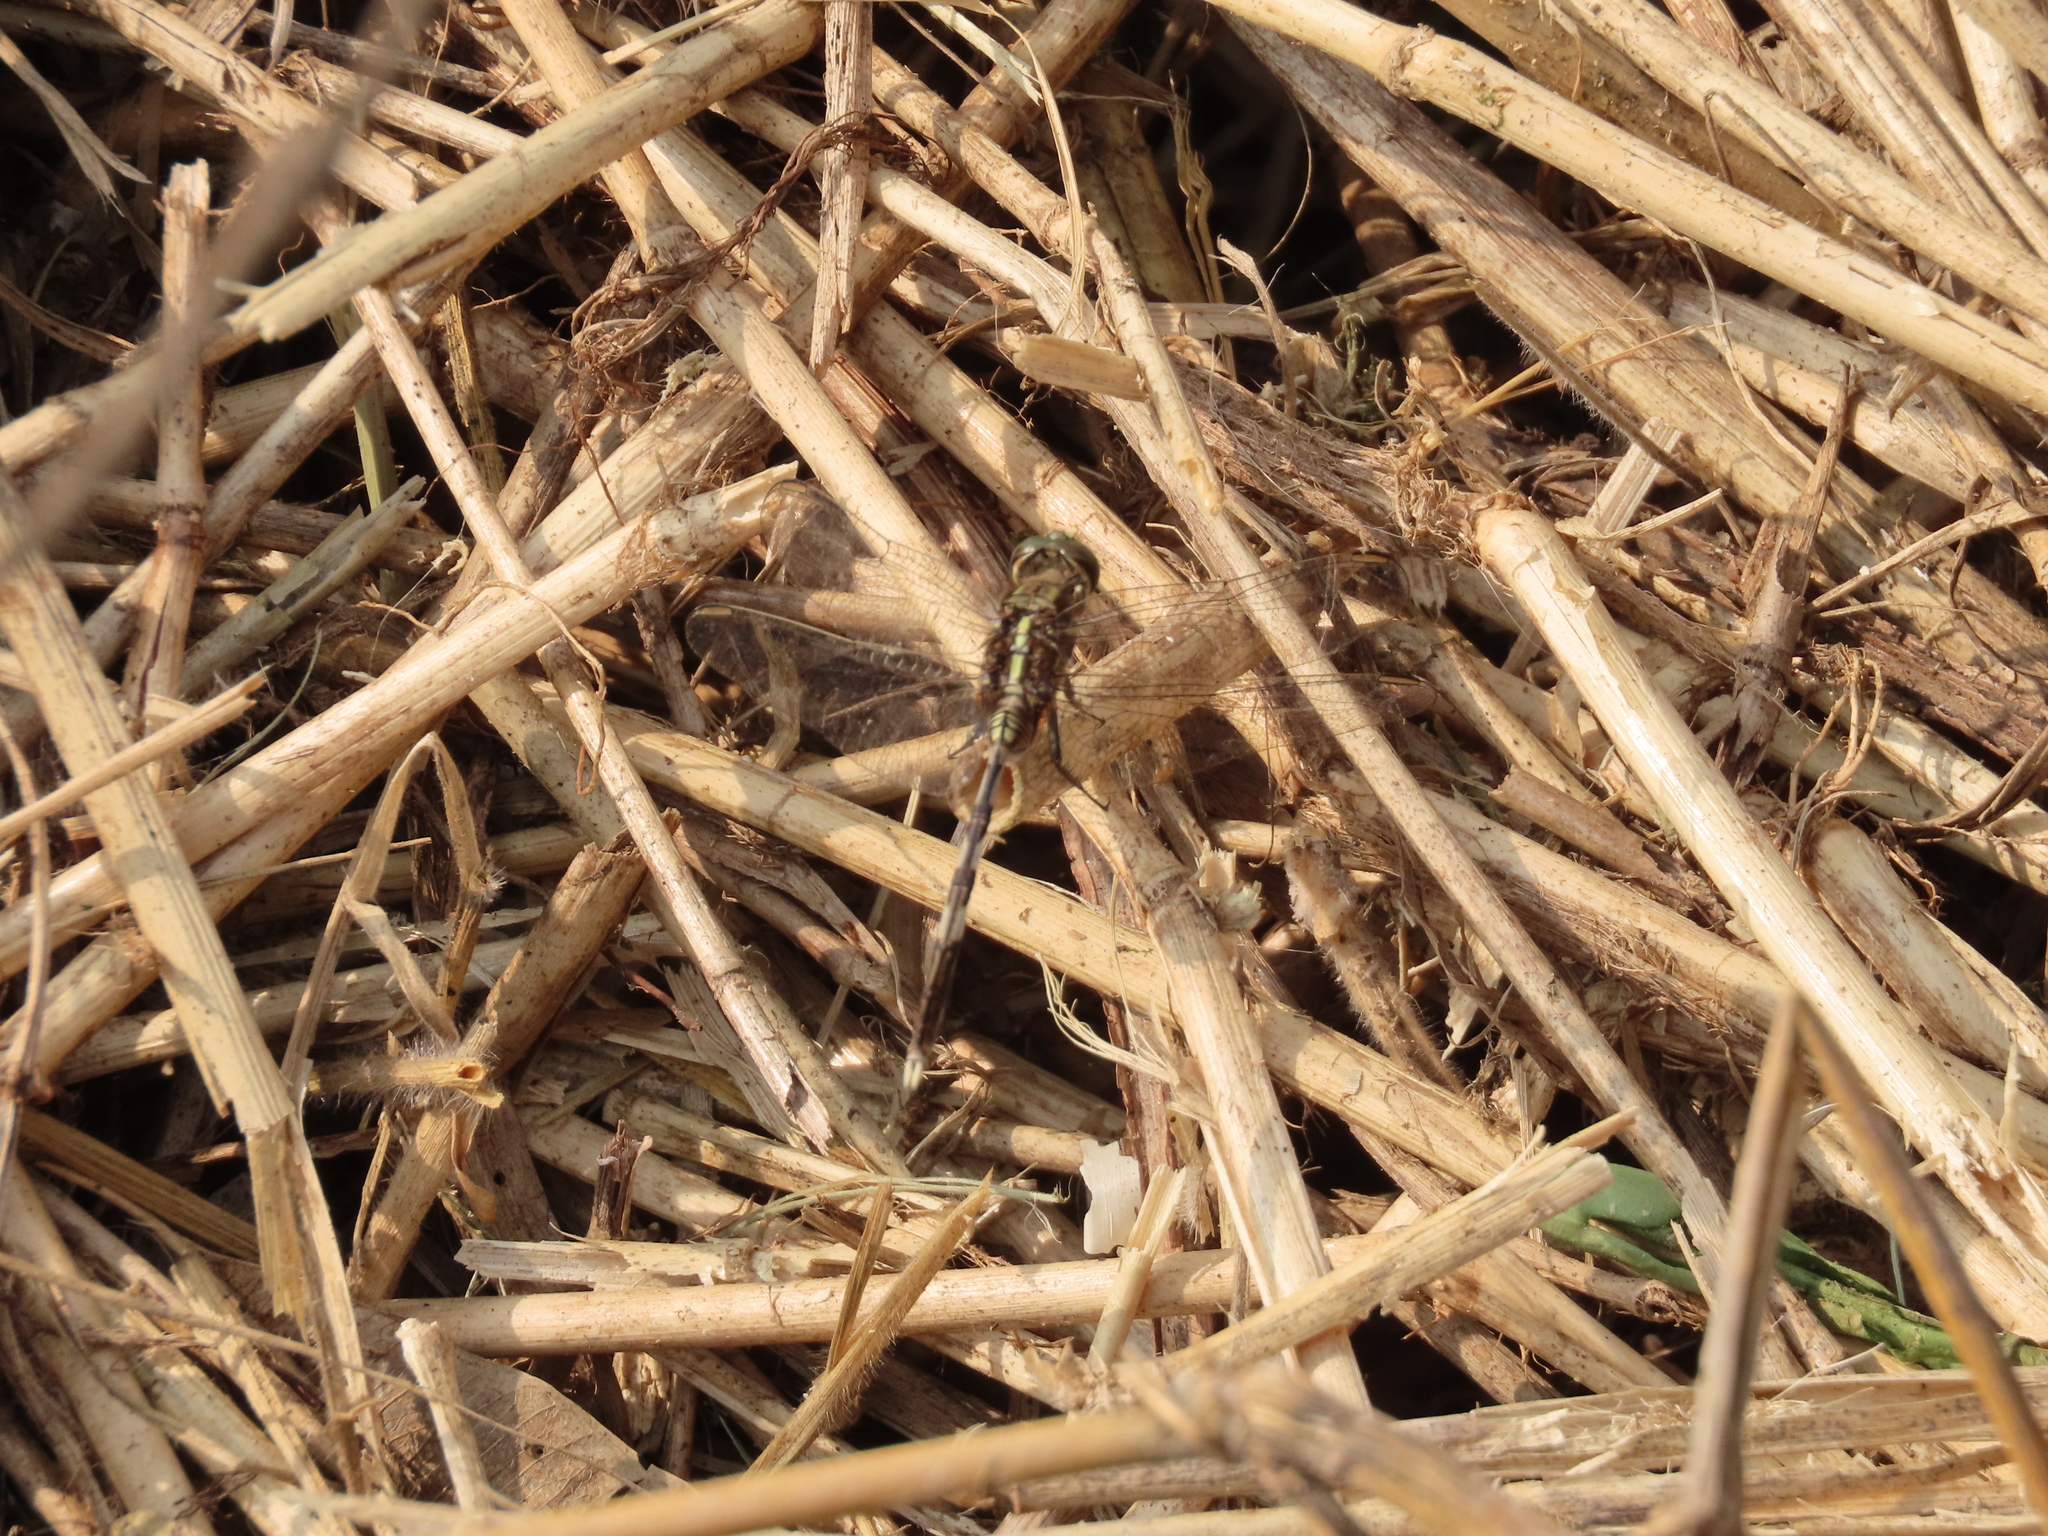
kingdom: Animalia
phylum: Arthropoda
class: Insecta
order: Odonata
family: Libellulidae
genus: Orthetrum
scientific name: Orthetrum sabina
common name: Slender skimmer
